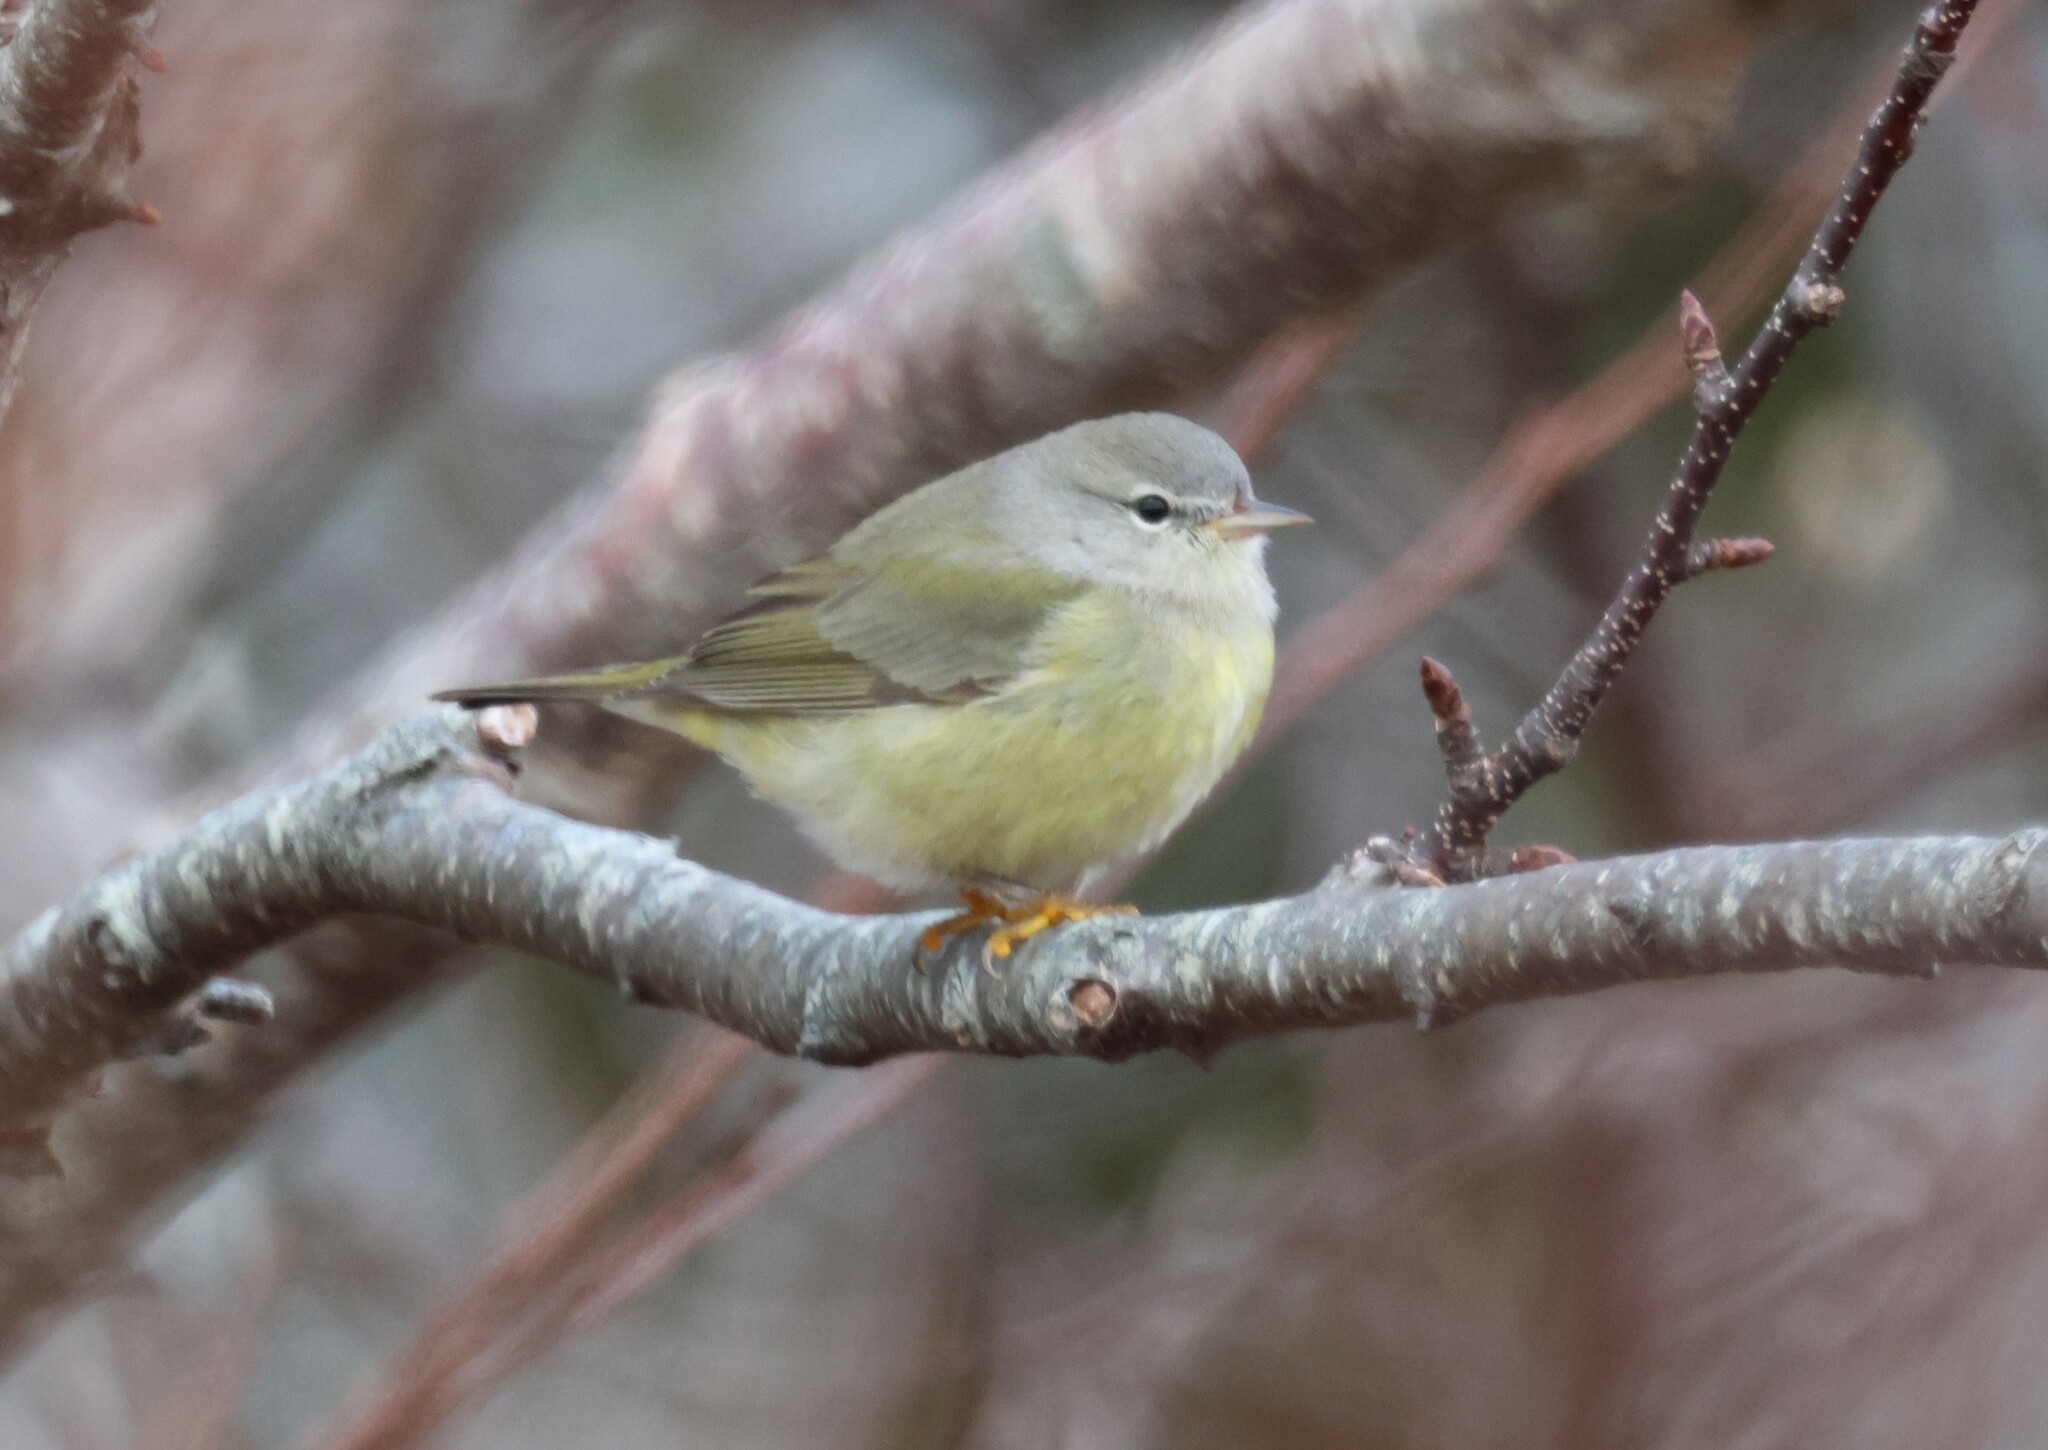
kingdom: Animalia
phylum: Chordata
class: Aves
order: Passeriformes
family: Parulidae
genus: Leiothlypis
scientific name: Leiothlypis celata
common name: Orange-crowned warbler
